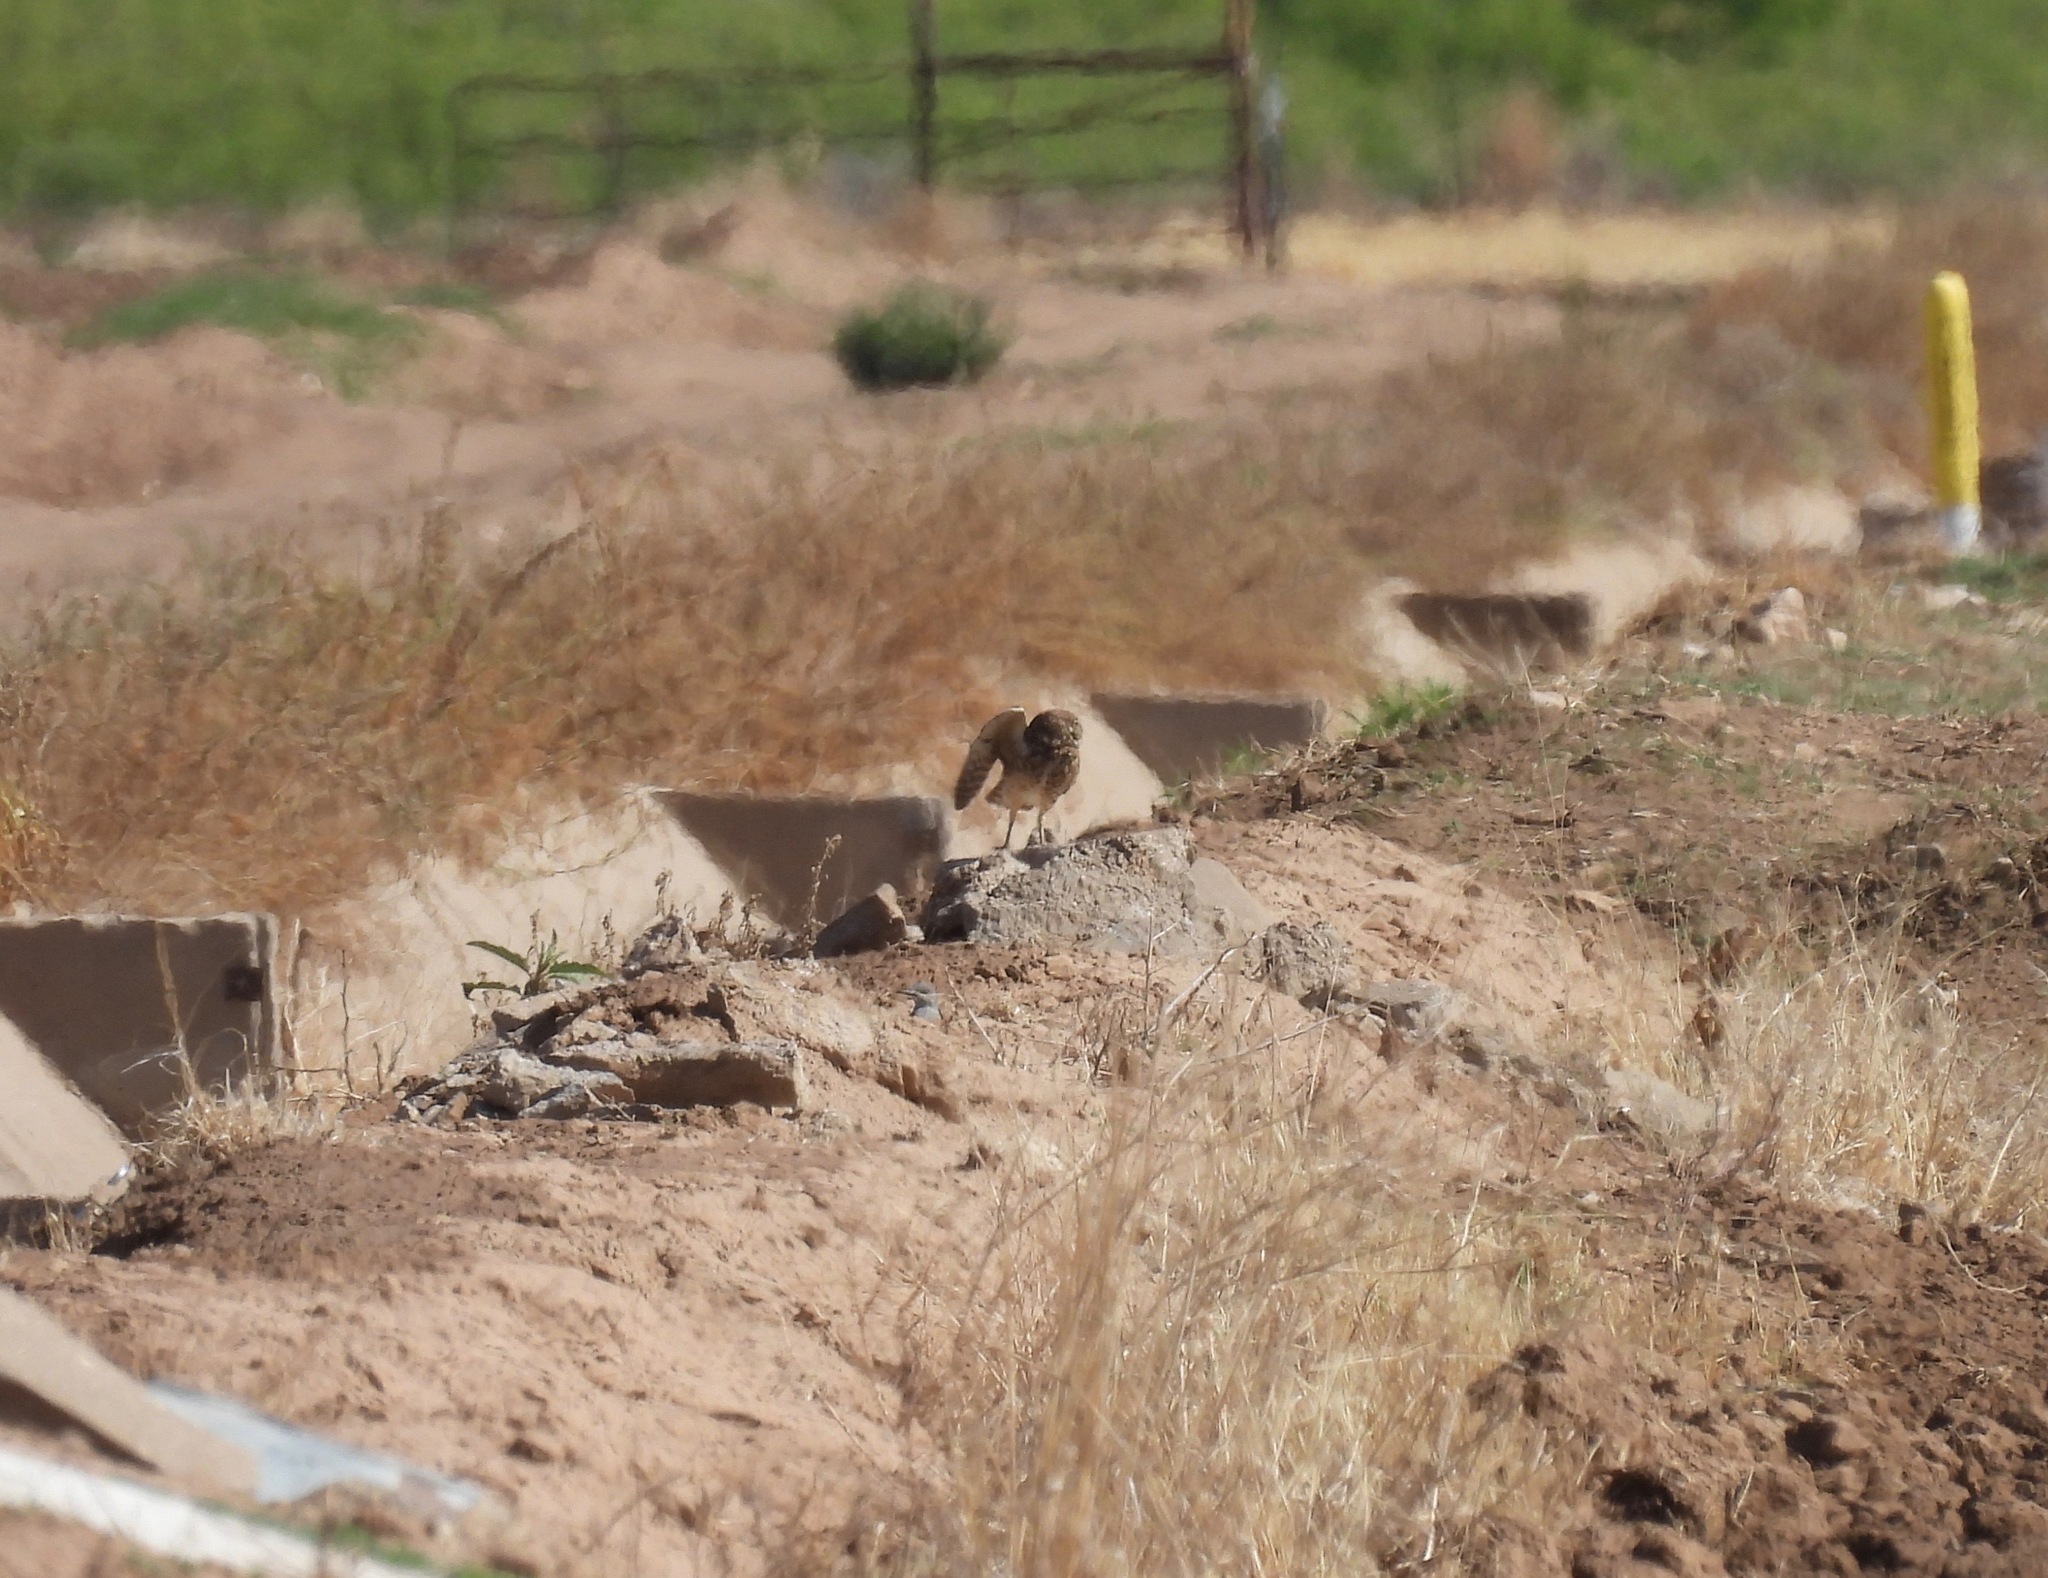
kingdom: Animalia
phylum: Chordata
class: Aves
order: Strigiformes
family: Strigidae
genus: Athene
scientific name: Athene cunicularia
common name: Burrowing owl
